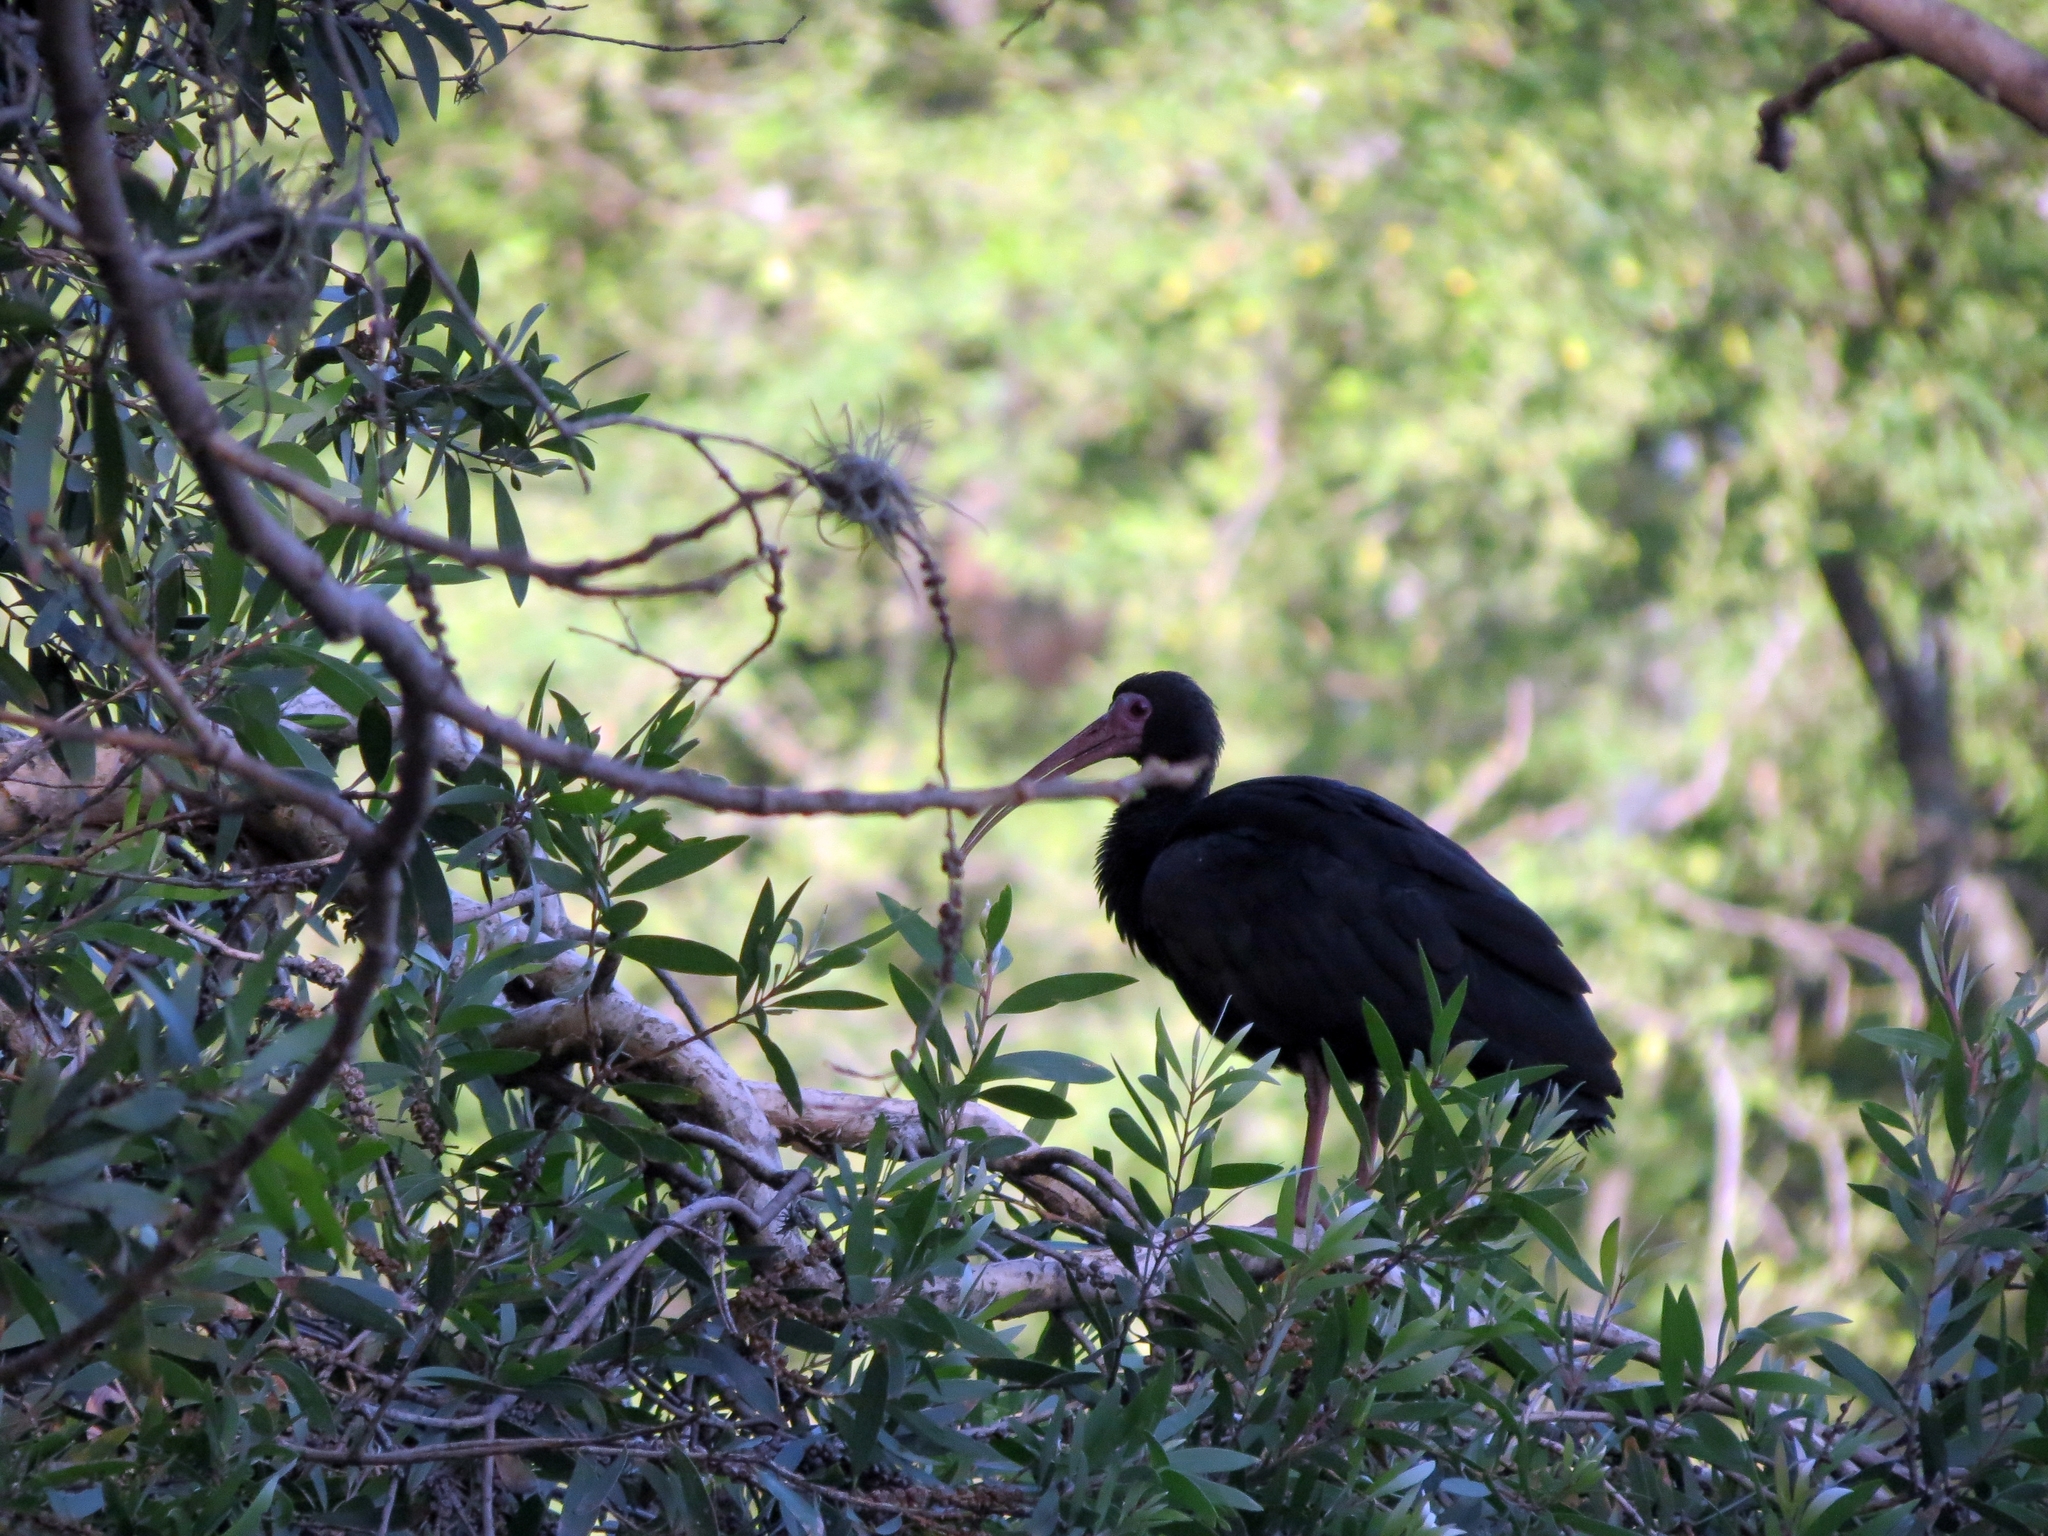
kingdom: Animalia
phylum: Chordata
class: Aves
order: Pelecaniformes
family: Threskiornithidae
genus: Phimosus
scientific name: Phimosus infuscatus
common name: Bare-faced ibis
